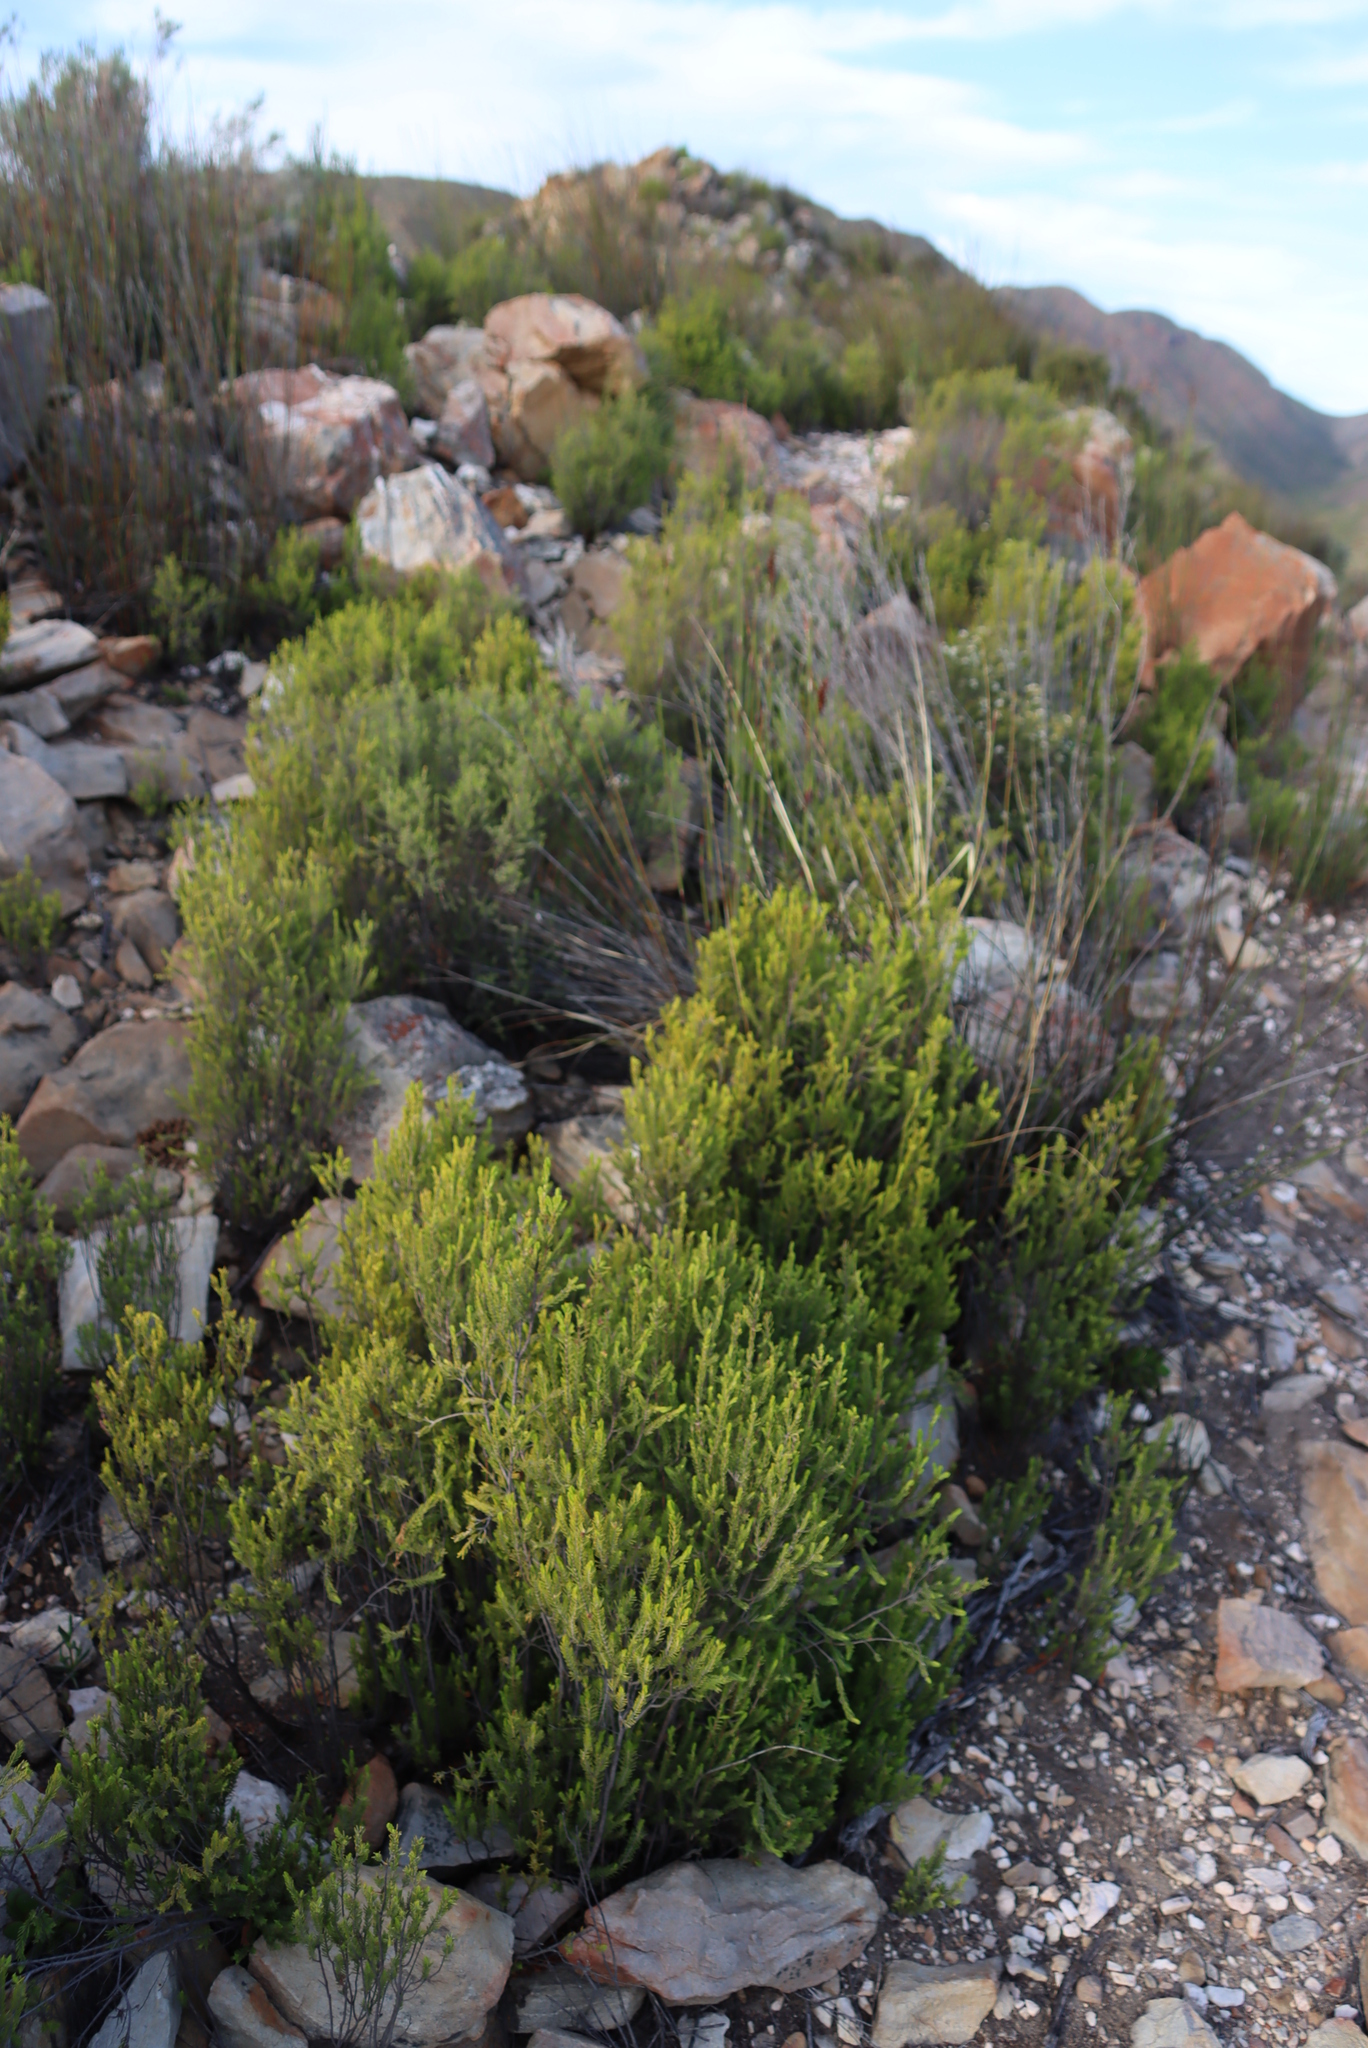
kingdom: Plantae
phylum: Tracheophyta
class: Magnoliopsida
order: Malvales
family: Thymelaeaceae
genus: Passerina
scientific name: Passerina obtusifolia
